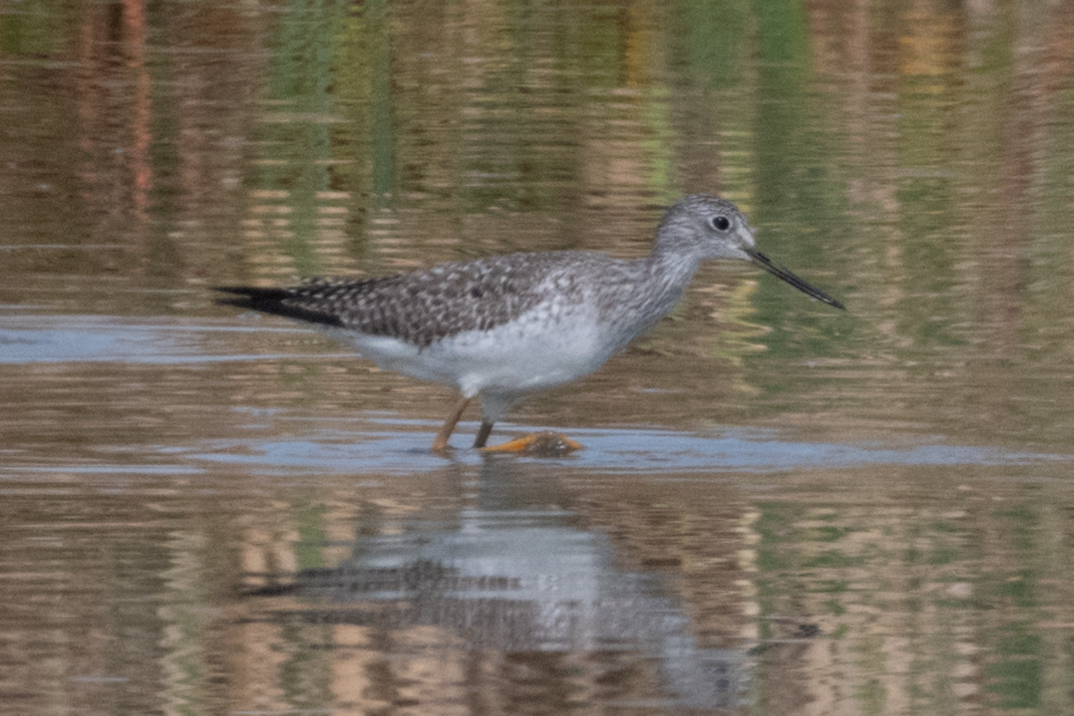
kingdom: Animalia
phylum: Chordata
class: Aves
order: Charadriiformes
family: Scolopacidae
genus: Tringa
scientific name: Tringa melanoleuca
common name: Greater yellowlegs
